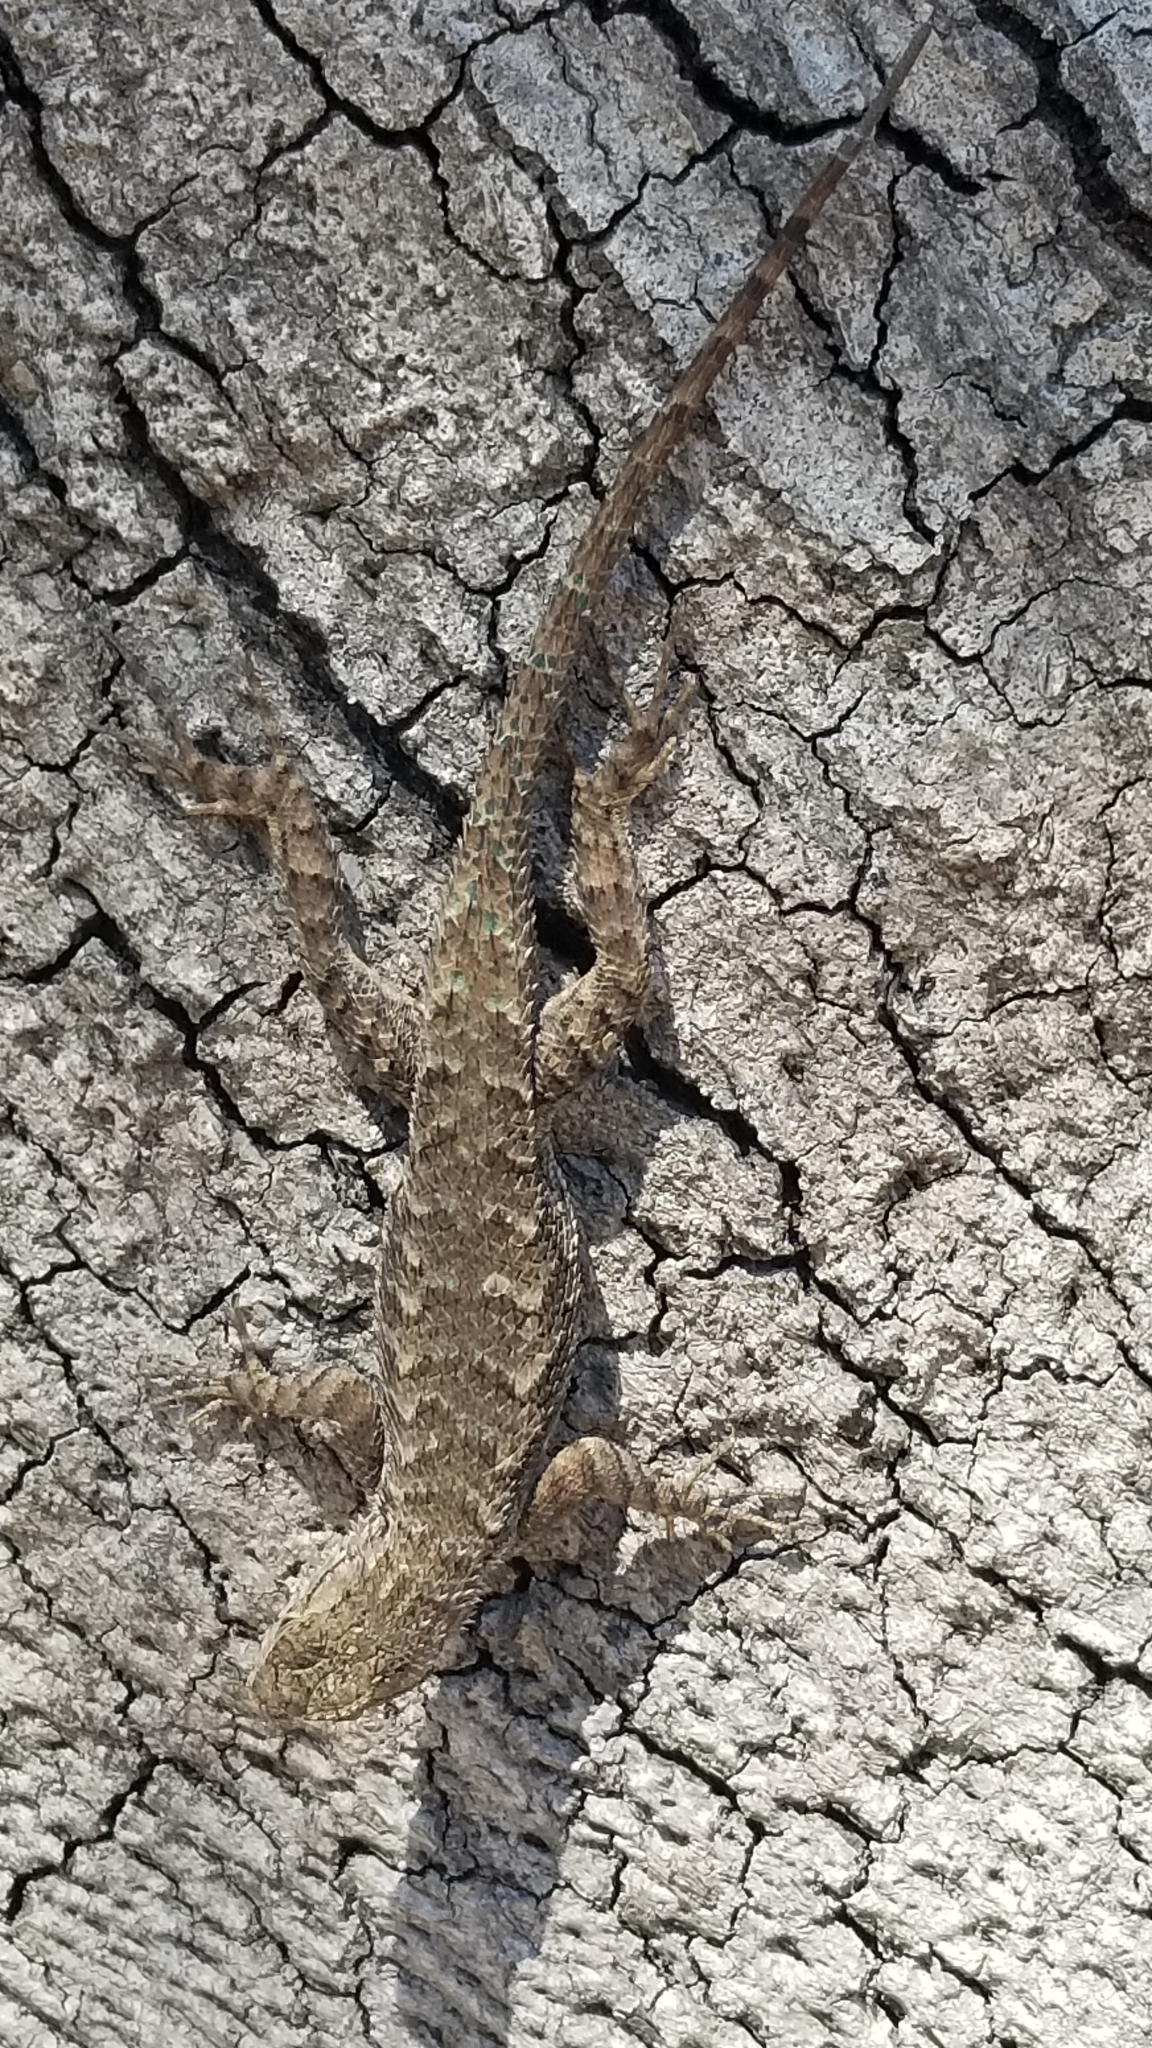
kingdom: Animalia
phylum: Chordata
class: Squamata
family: Phrynosomatidae
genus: Sceloporus
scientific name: Sceloporus occidentalis
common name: Western fence lizard
